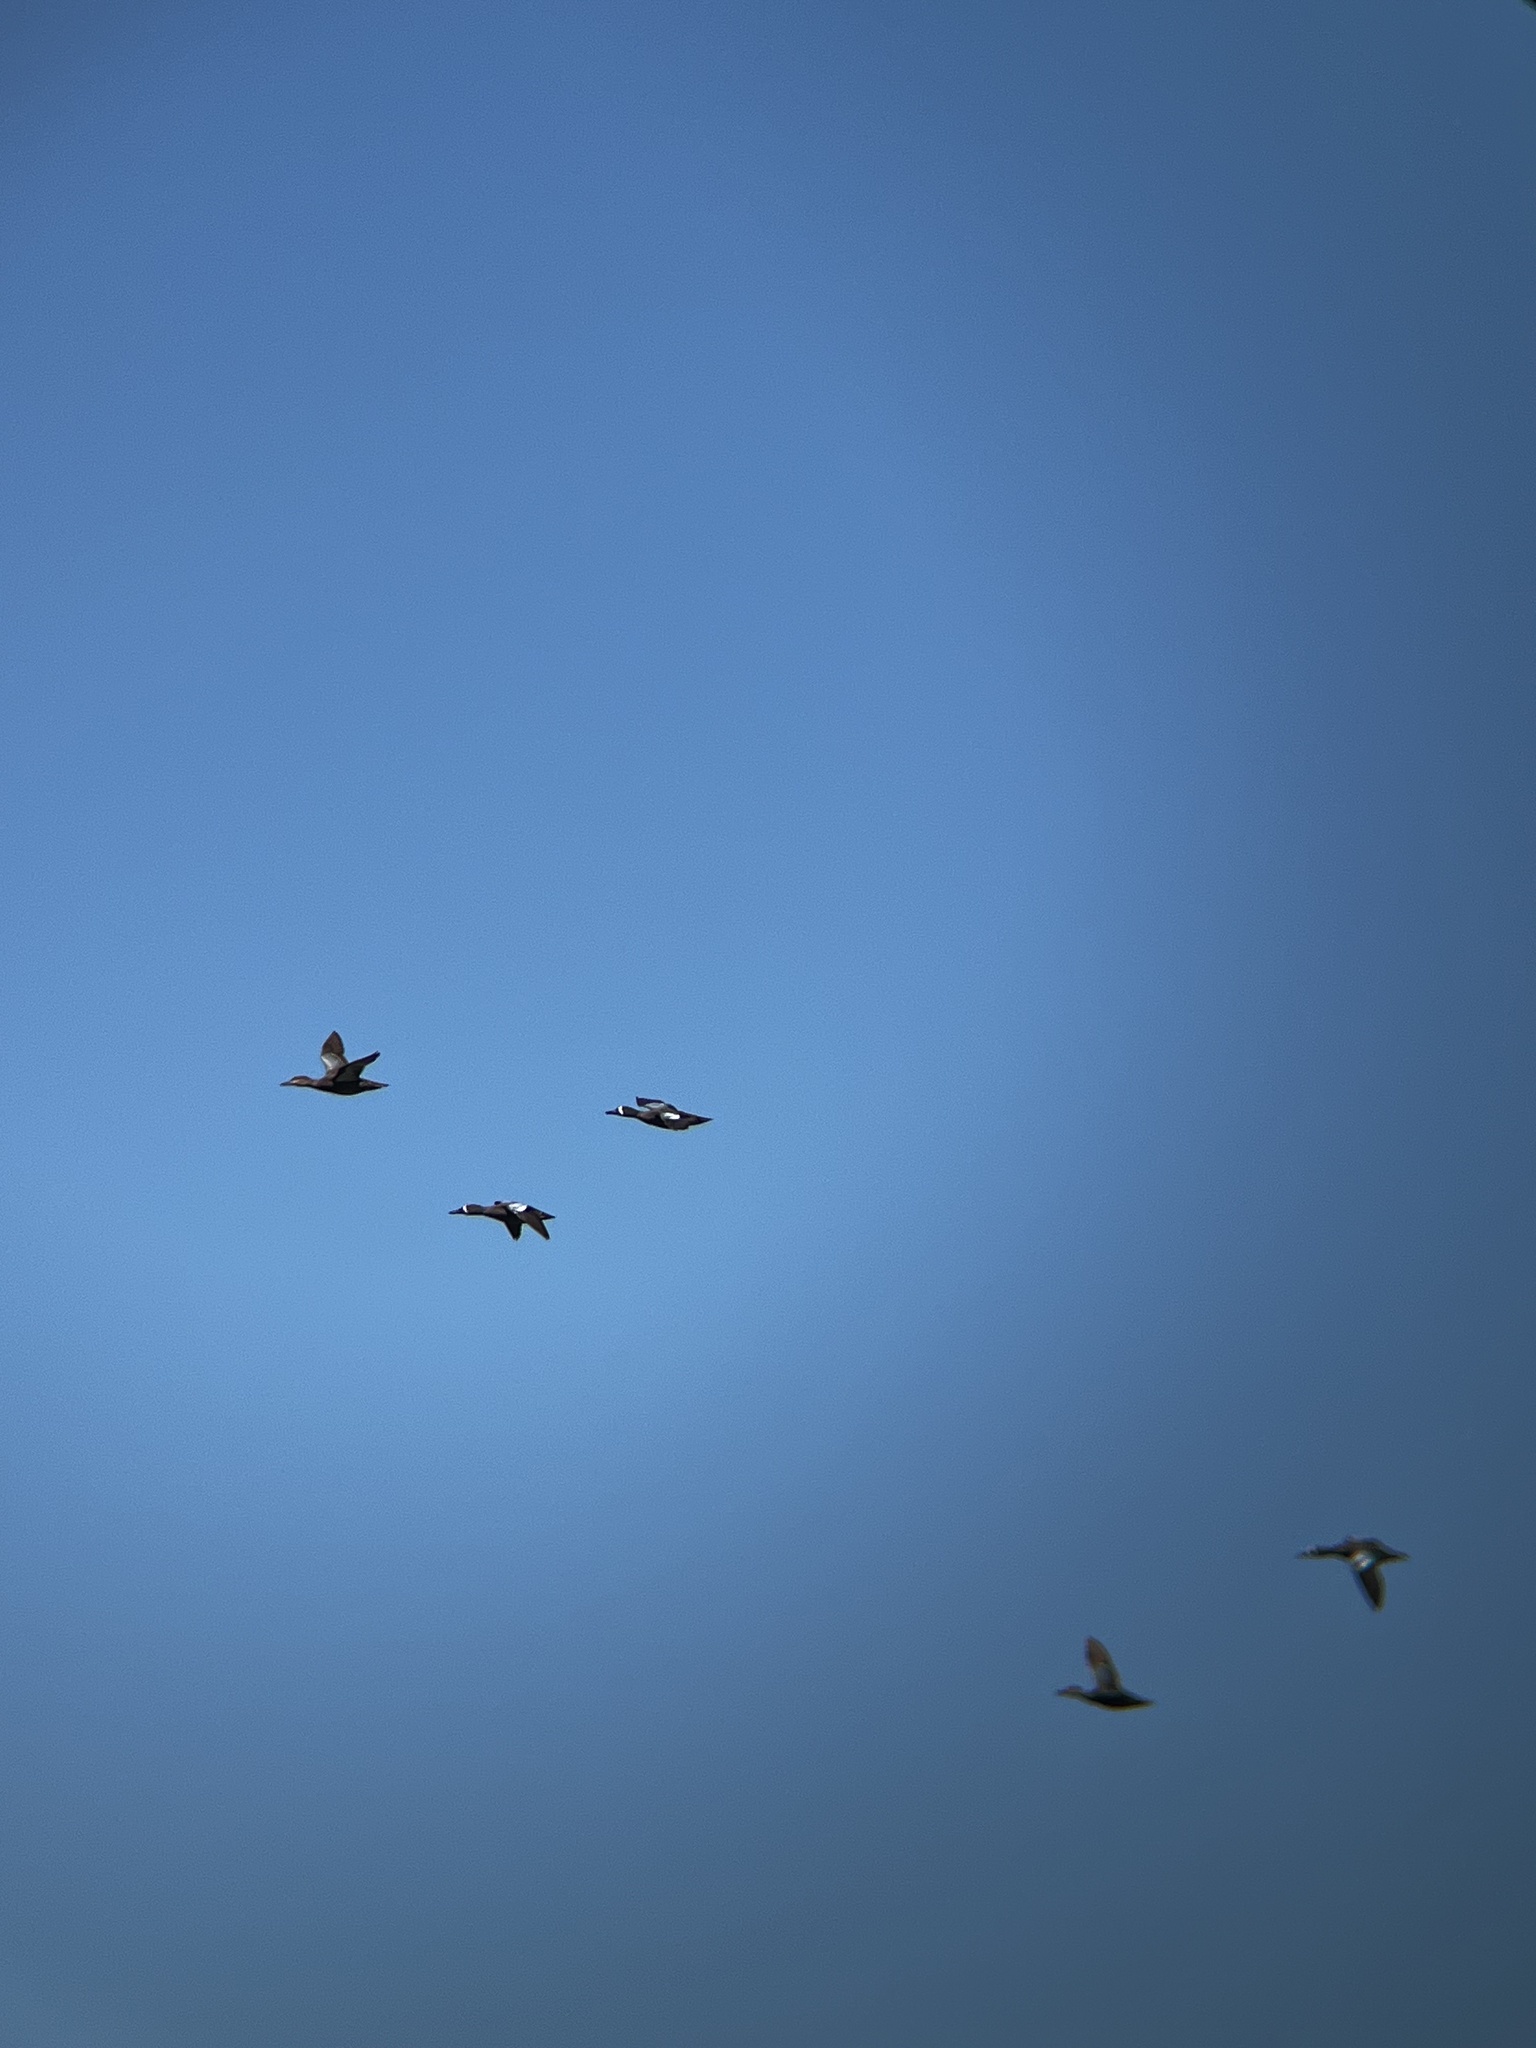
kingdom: Animalia
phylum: Chordata
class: Aves
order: Anseriformes
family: Anatidae
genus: Spatula
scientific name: Spatula discors
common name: Blue-winged teal
